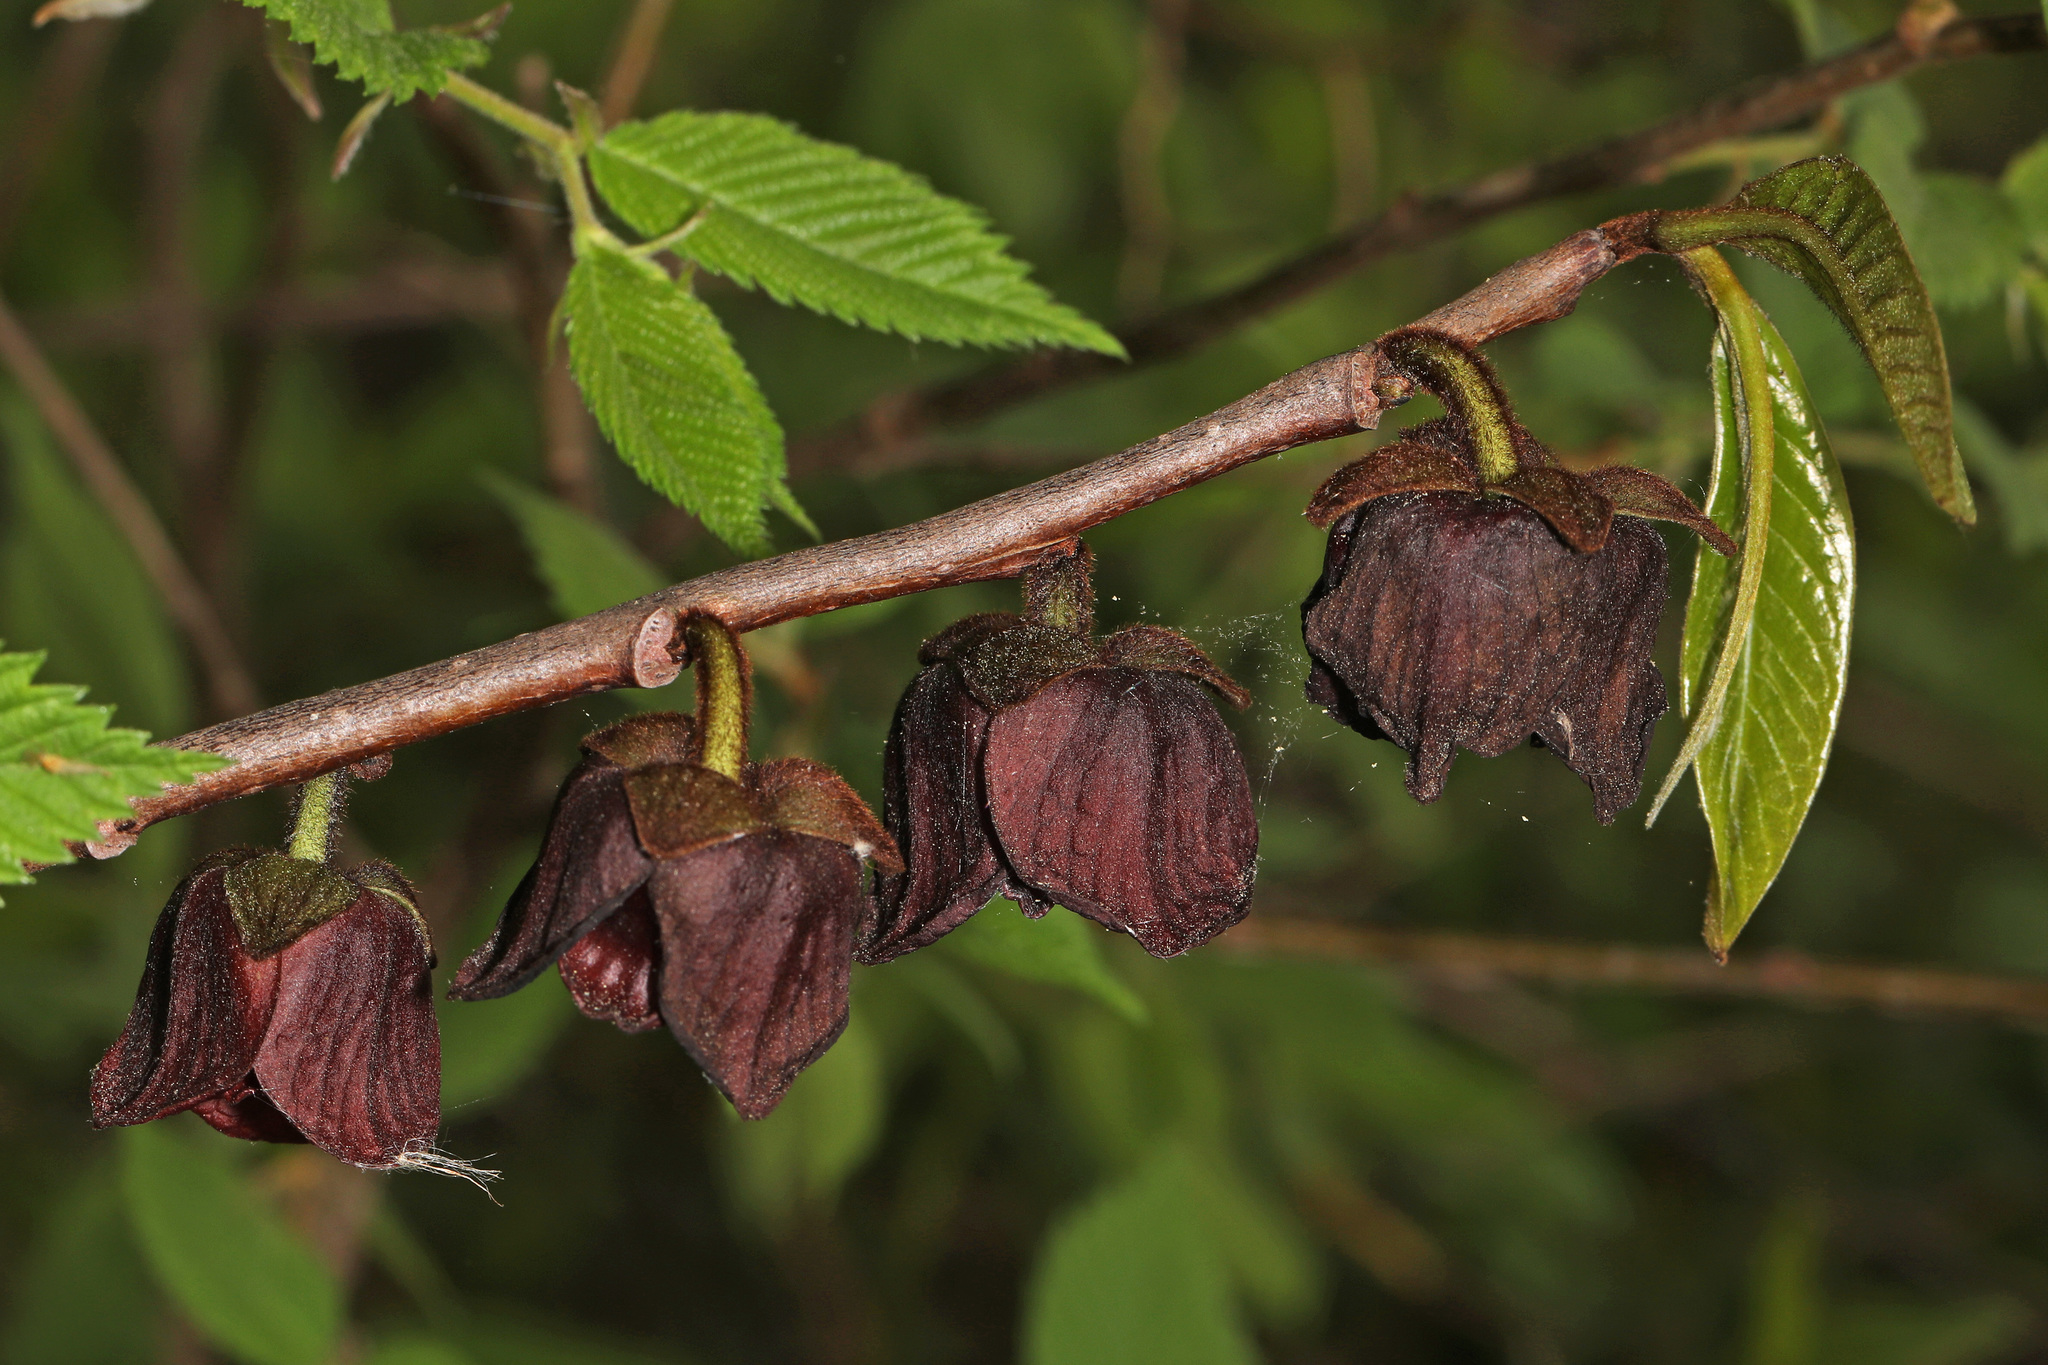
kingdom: Plantae
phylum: Tracheophyta
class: Magnoliopsida
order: Magnoliales
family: Annonaceae
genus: Asimina
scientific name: Asimina triloba
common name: Dog-banana
